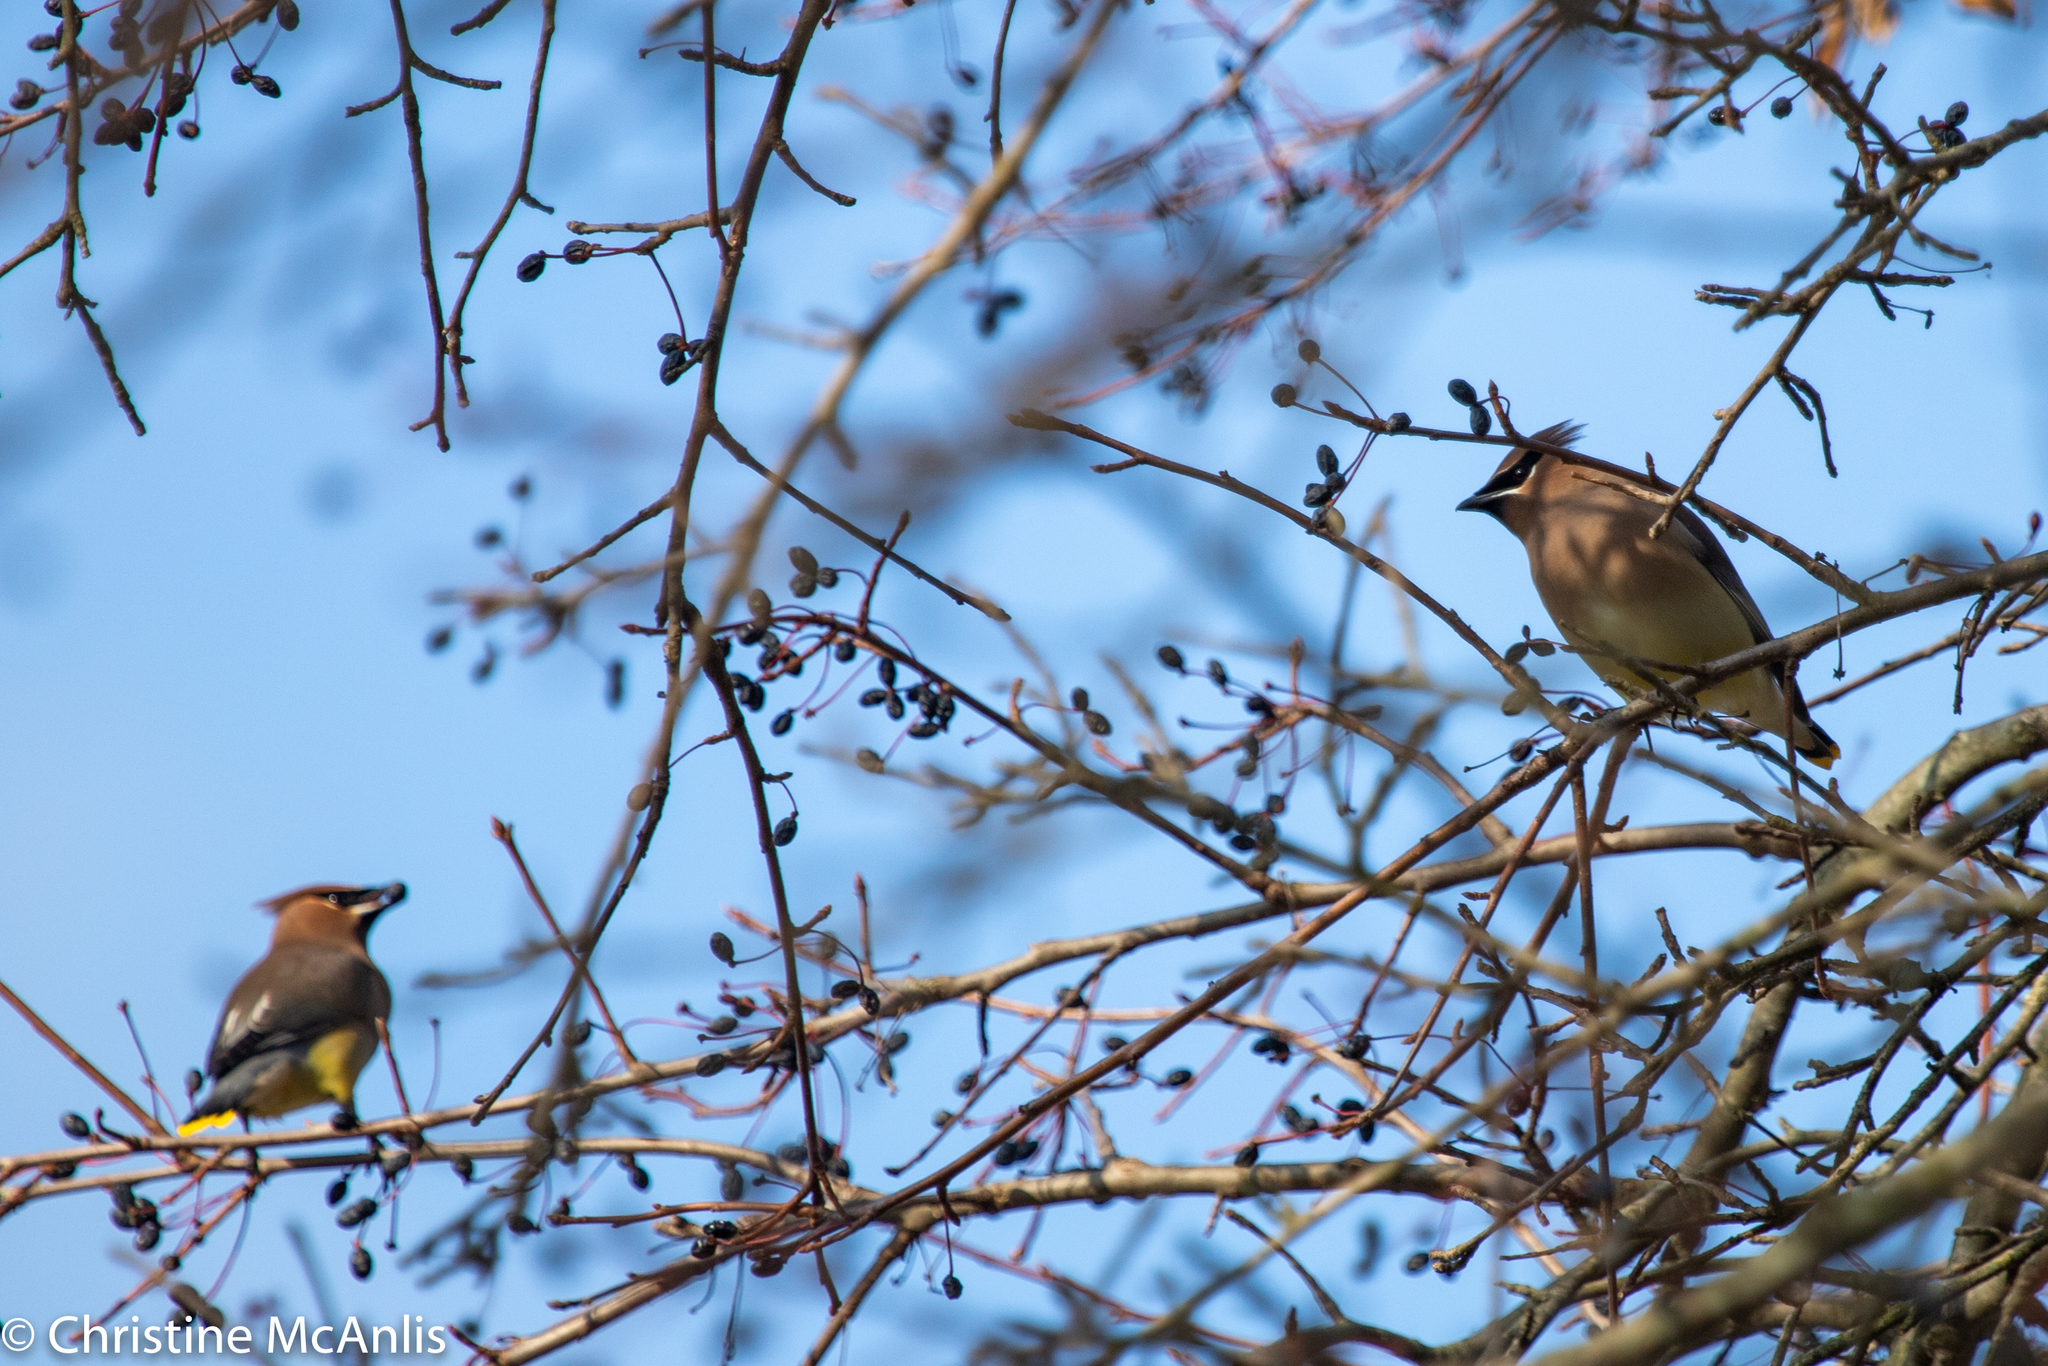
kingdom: Animalia
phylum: Chordata
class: Aves
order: Passeriformes
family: Bombycillidae
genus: Bombycilla
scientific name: Bombycilla cedrorum
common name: Cedar waxwing
